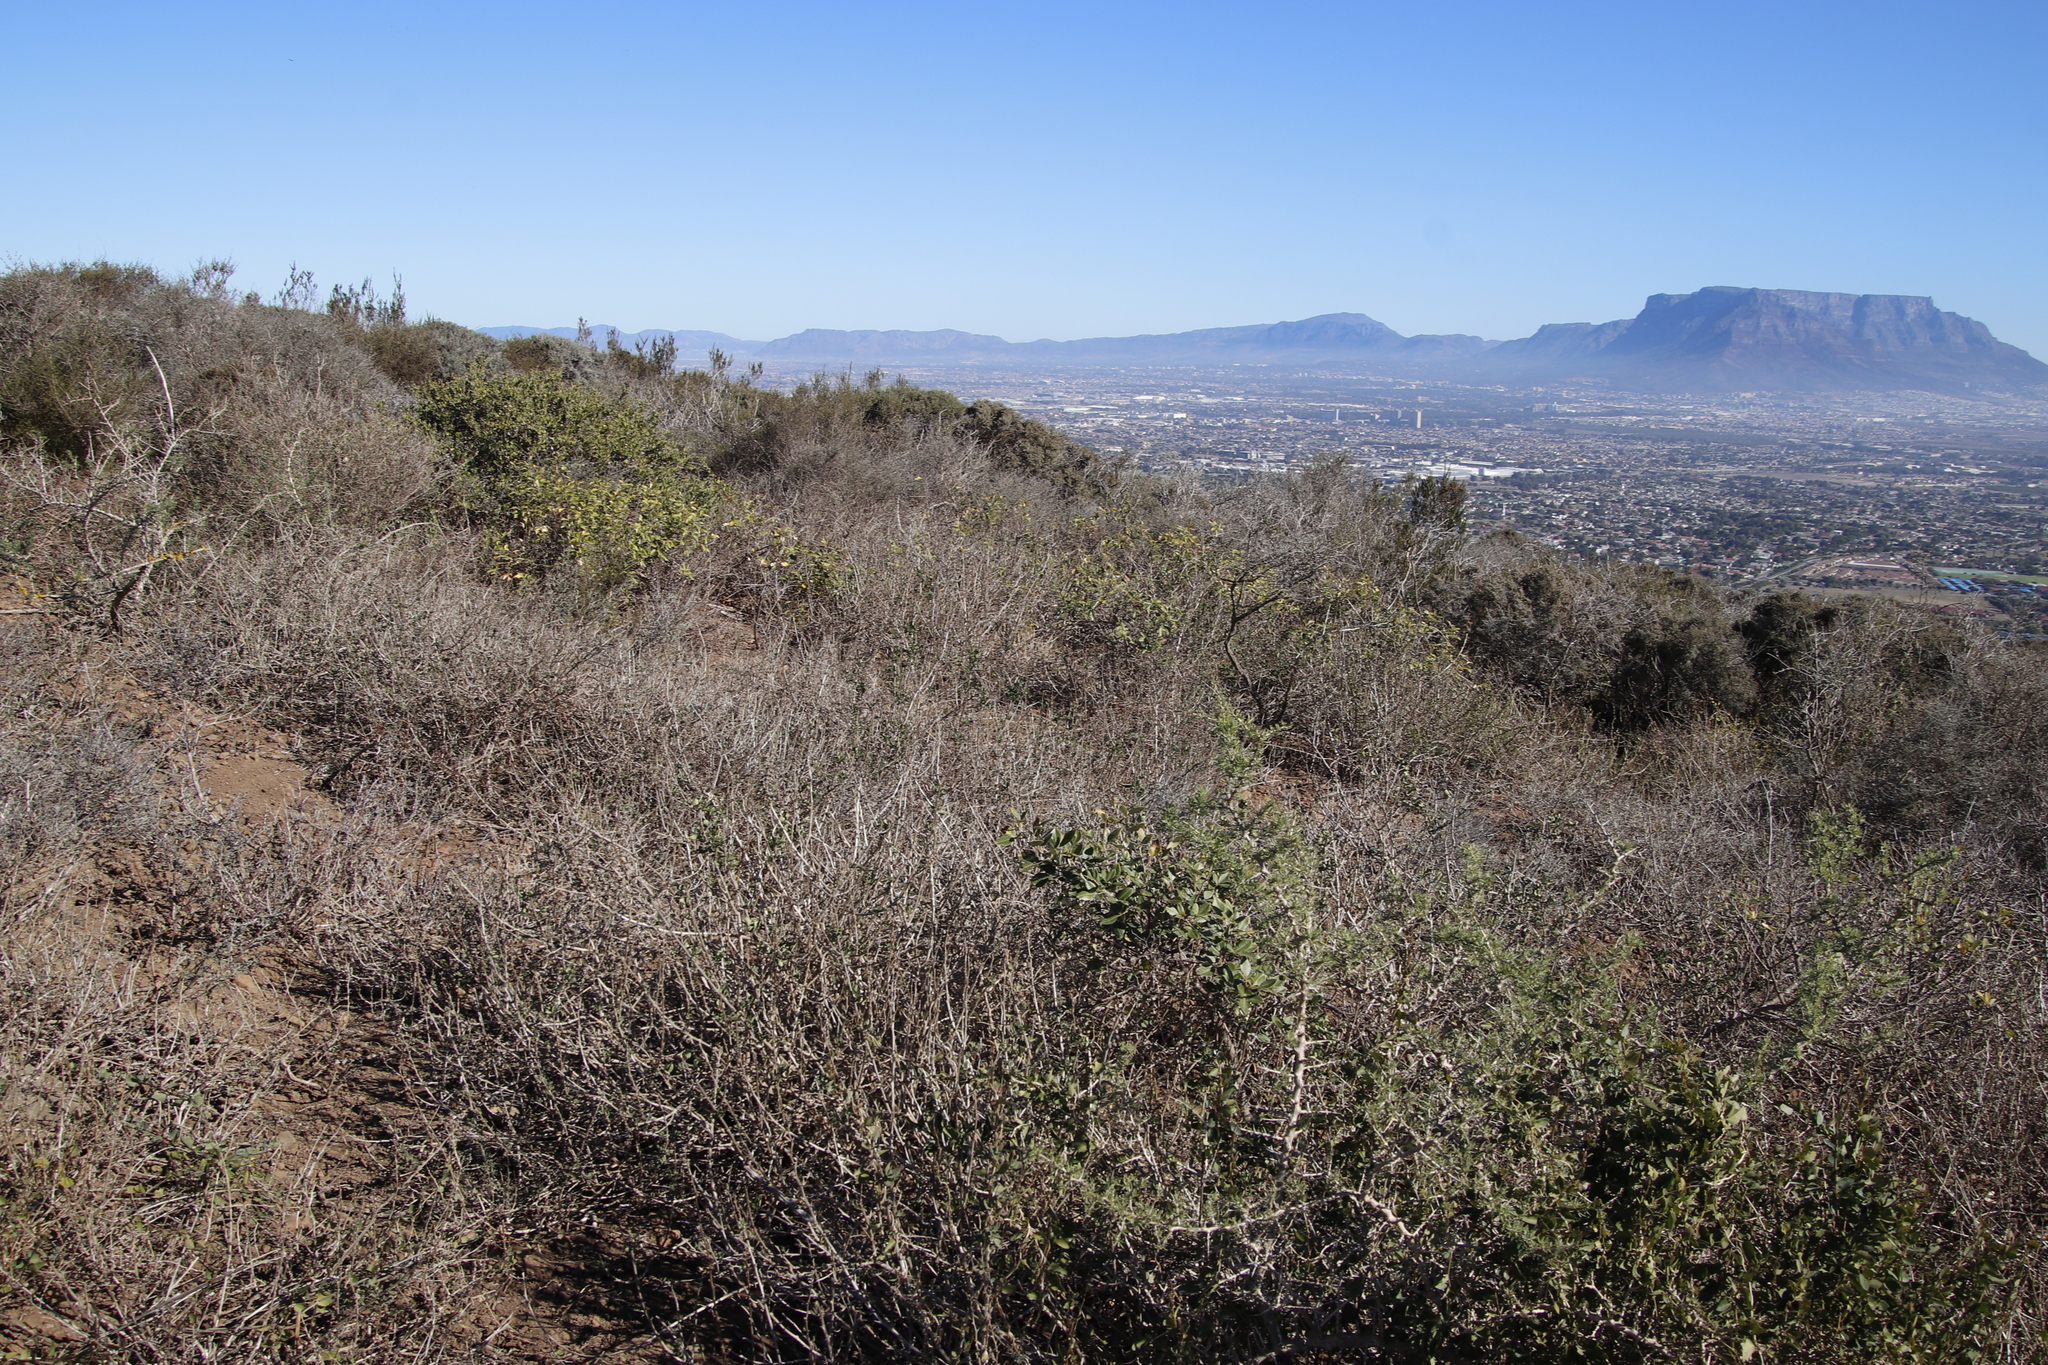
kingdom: Plantae
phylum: Tracheophyta
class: Magnoliopsida
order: Sapindales
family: Anacardiaceae
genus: Searsia
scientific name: Searsia tomentosa
